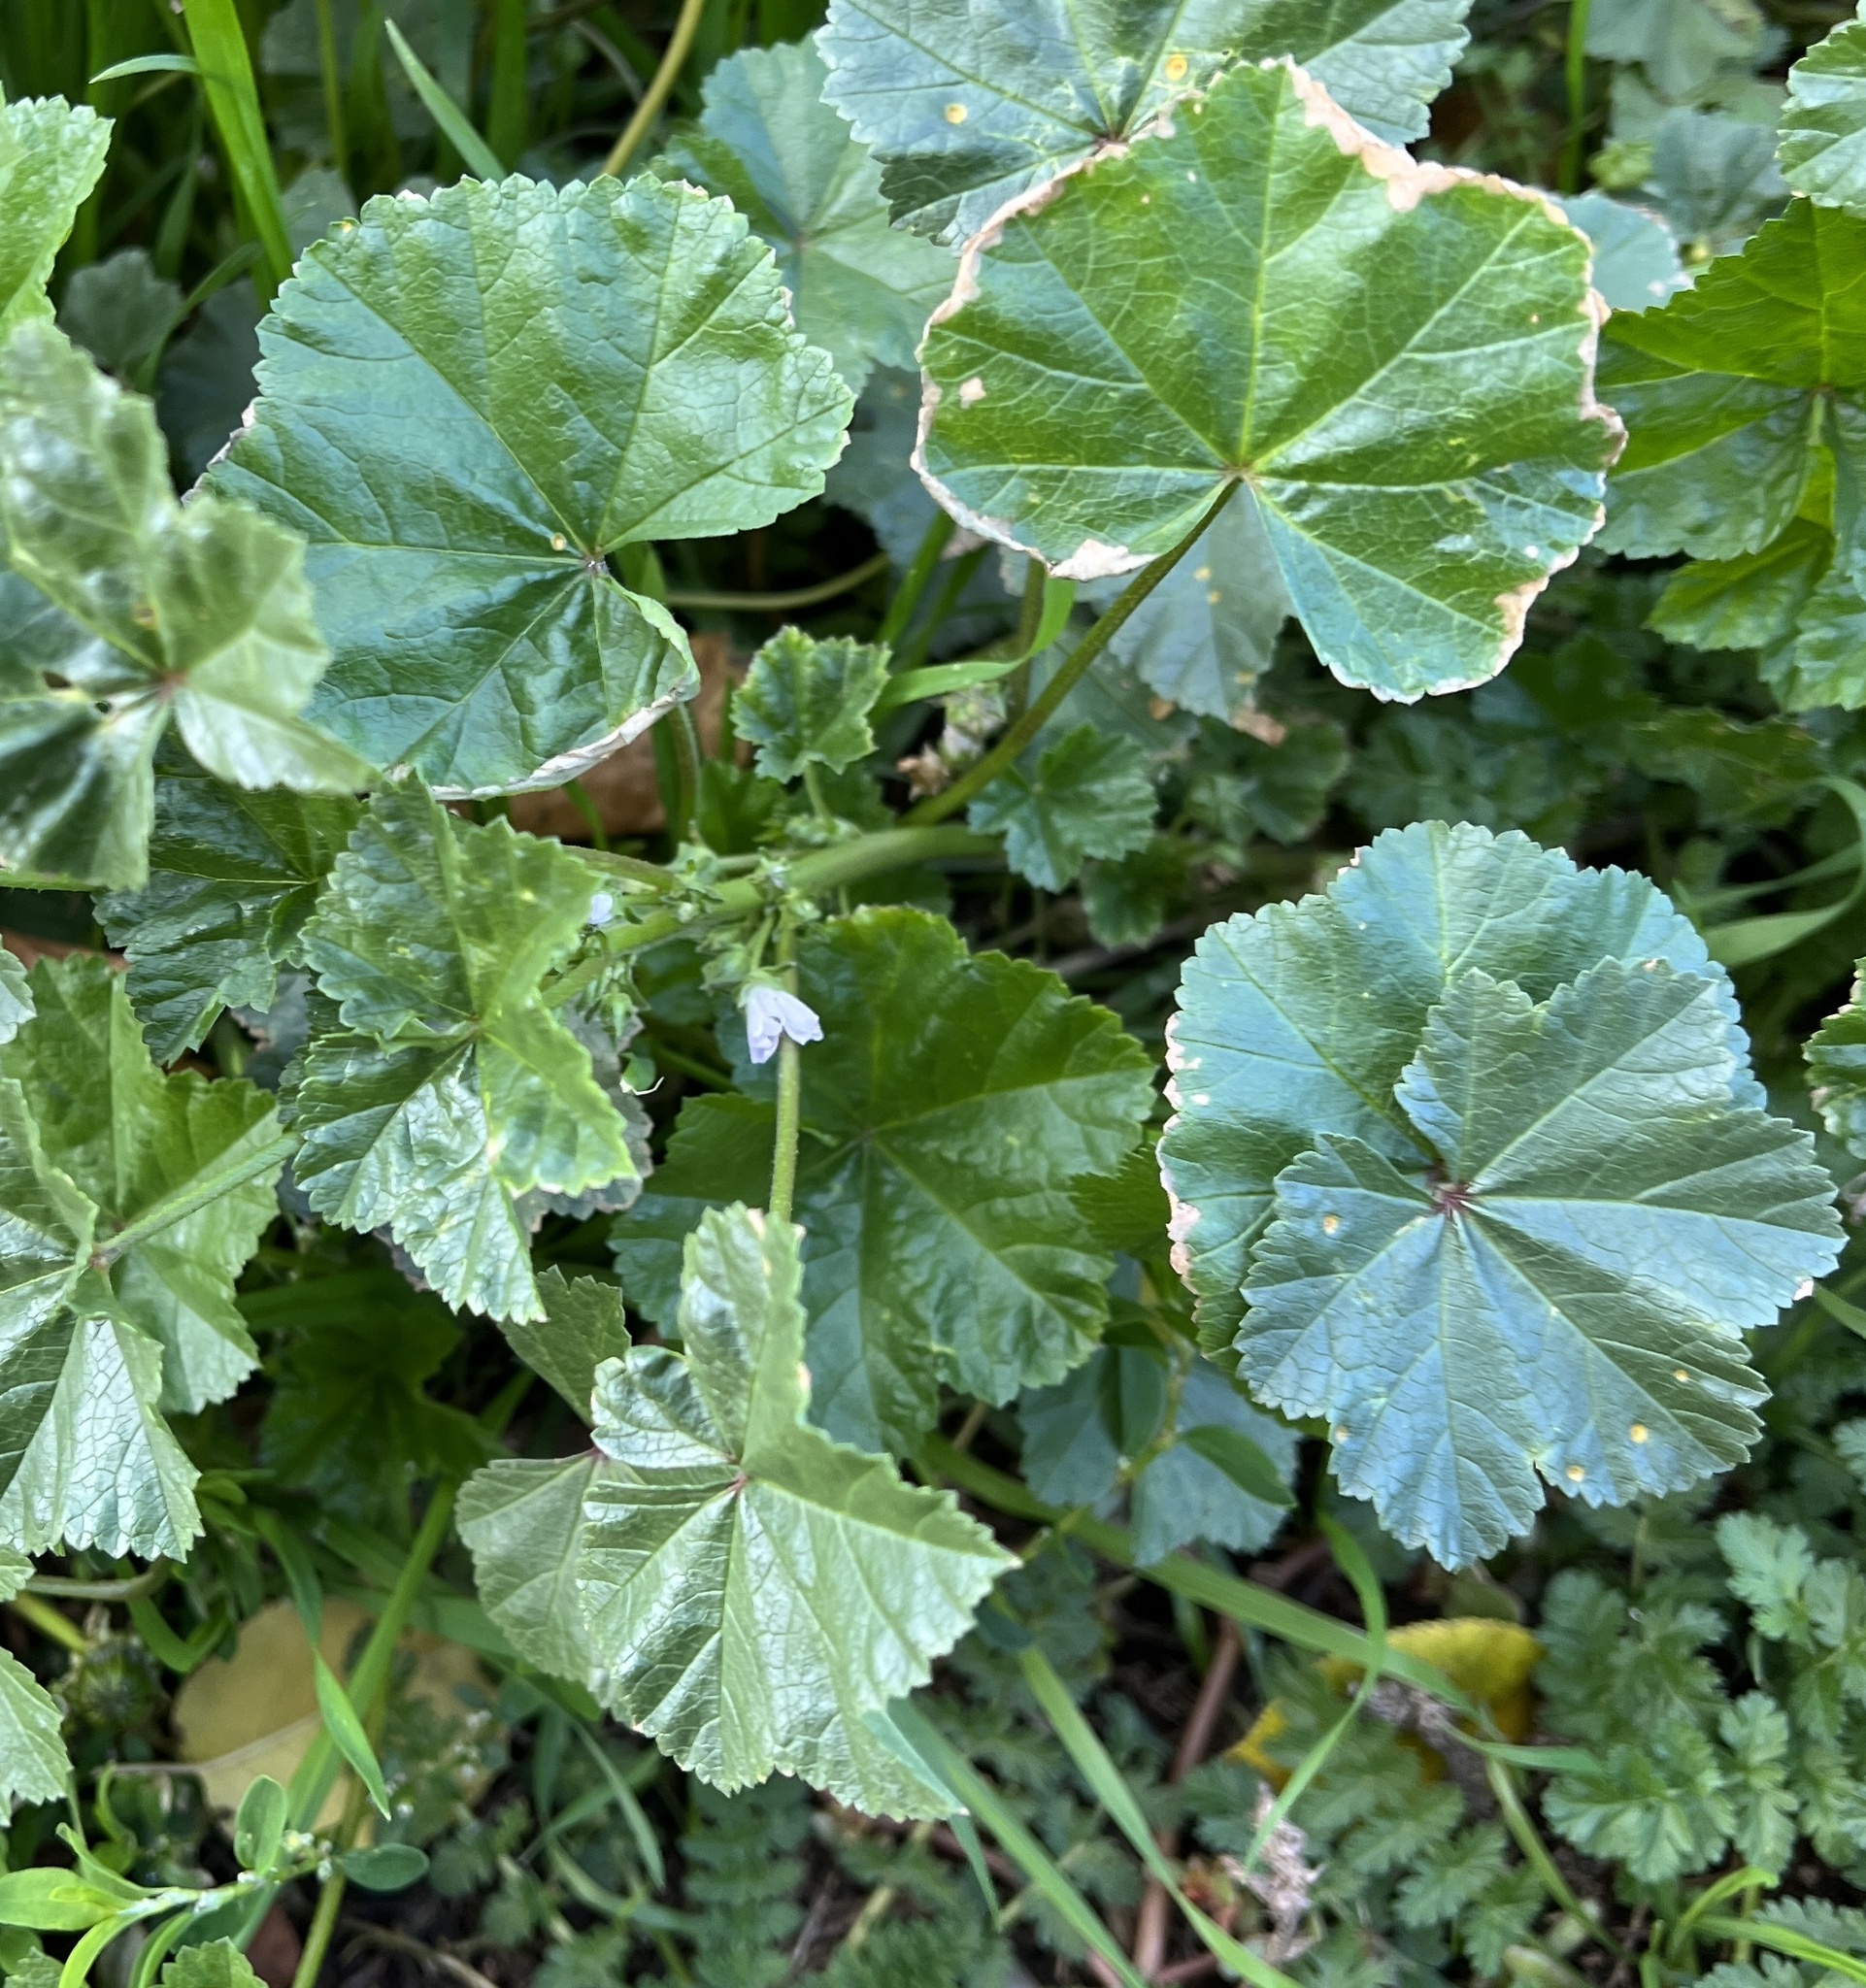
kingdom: Plantae
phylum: Tracheophyta
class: Magnoliopsida
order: Malvales
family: Malvaceae
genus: Malva
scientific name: Malva neglecta
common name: Common mallow
